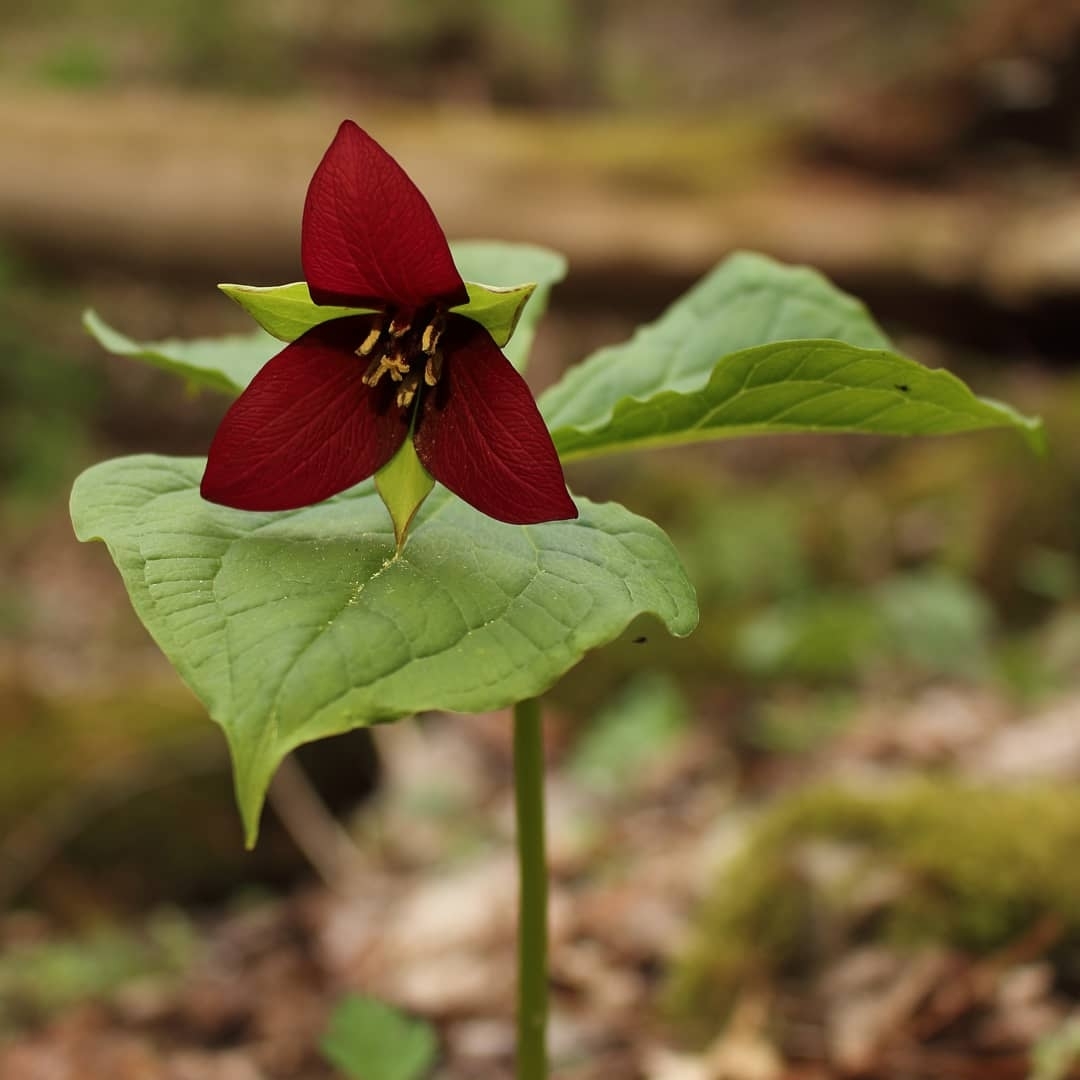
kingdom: Plantae
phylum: Tracheophyta
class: Liliopsida
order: Liliales
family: Melanthiaceae
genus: Trillium
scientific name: Trillium erectum
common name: Purple trillium
